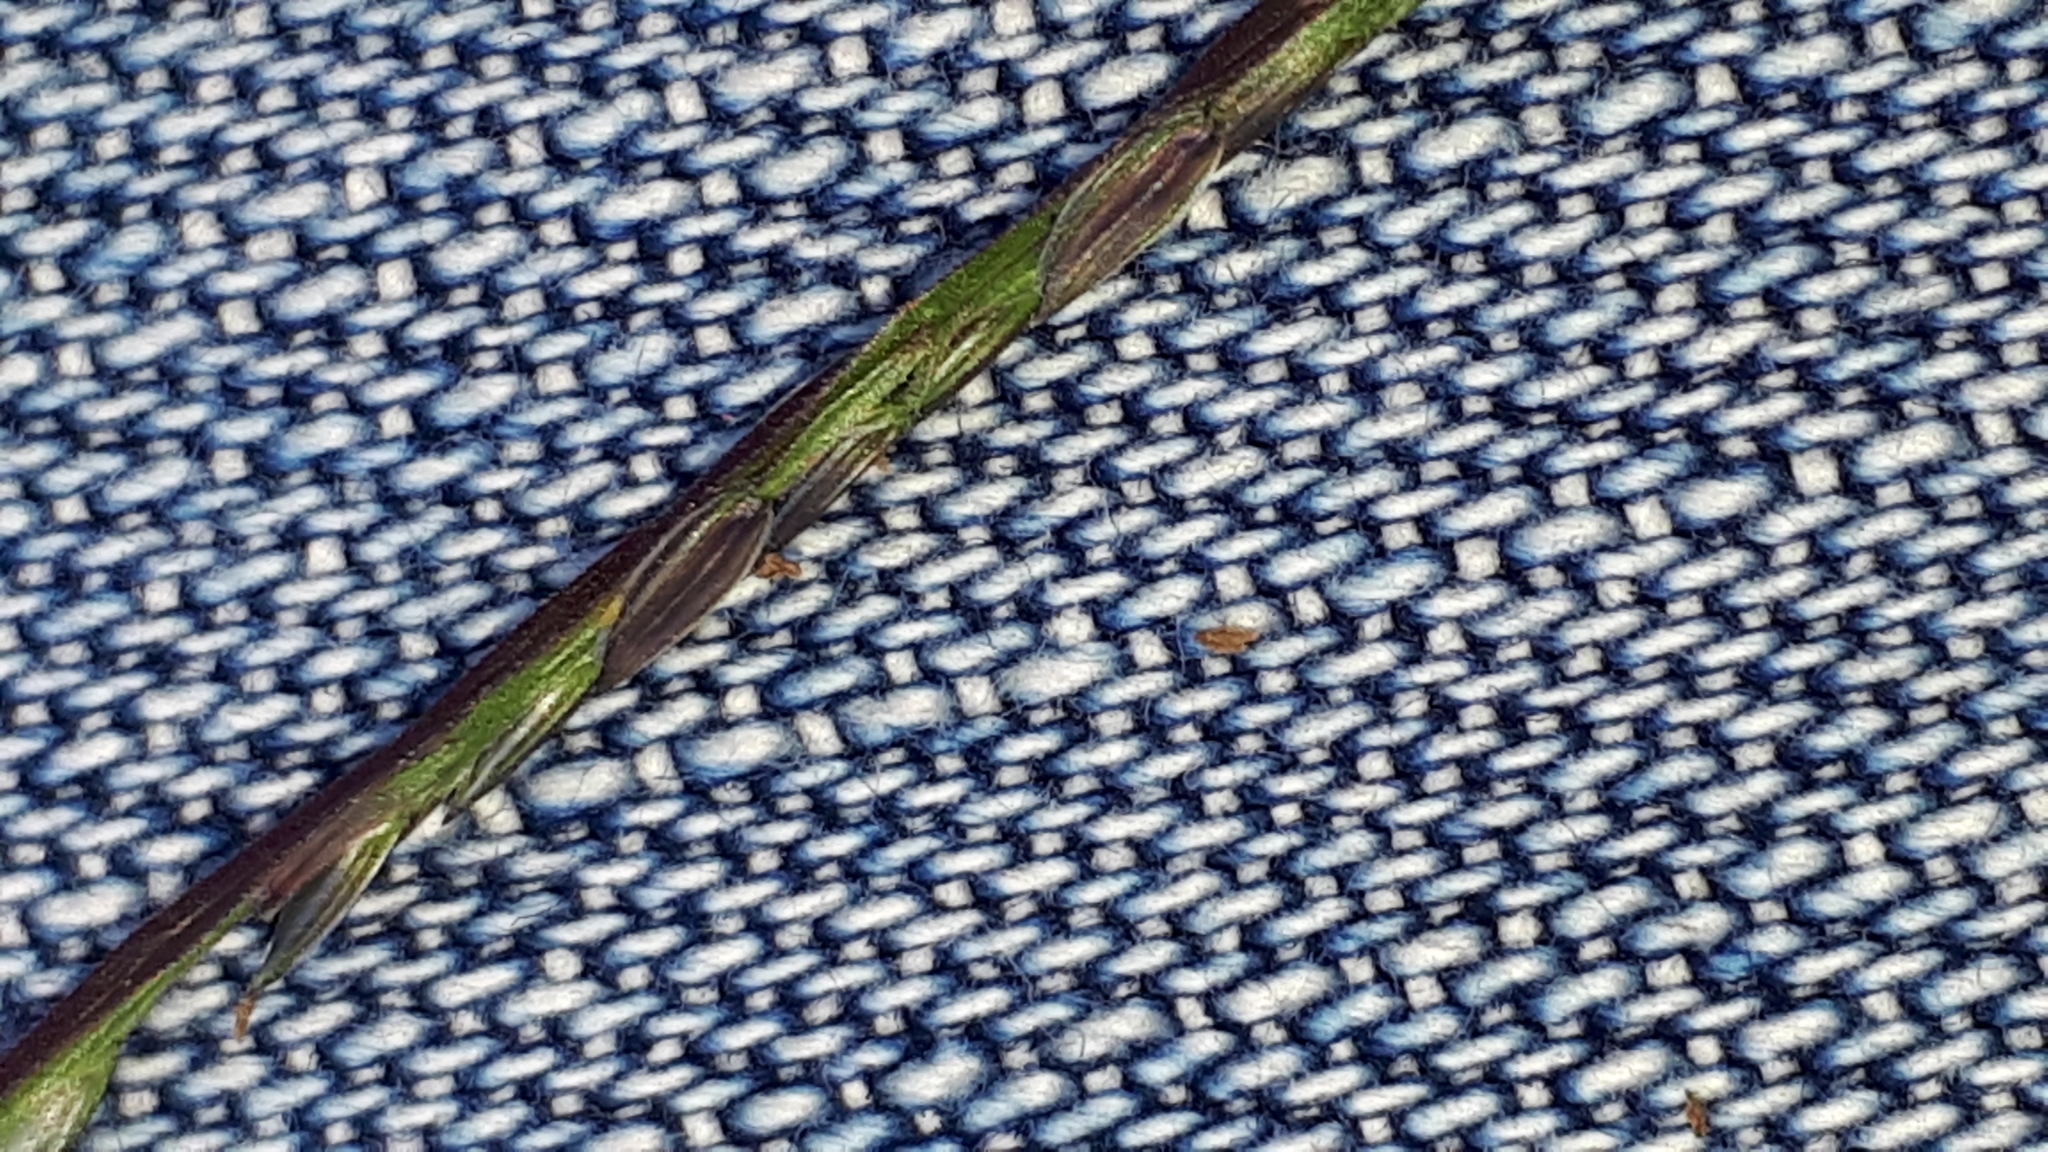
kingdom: Plantae
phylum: Tracheophyta
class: Liliopsida
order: Poales
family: Poaceae
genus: Digitaria
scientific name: Digitaria sanguinalis
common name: Hairy crabgrass
